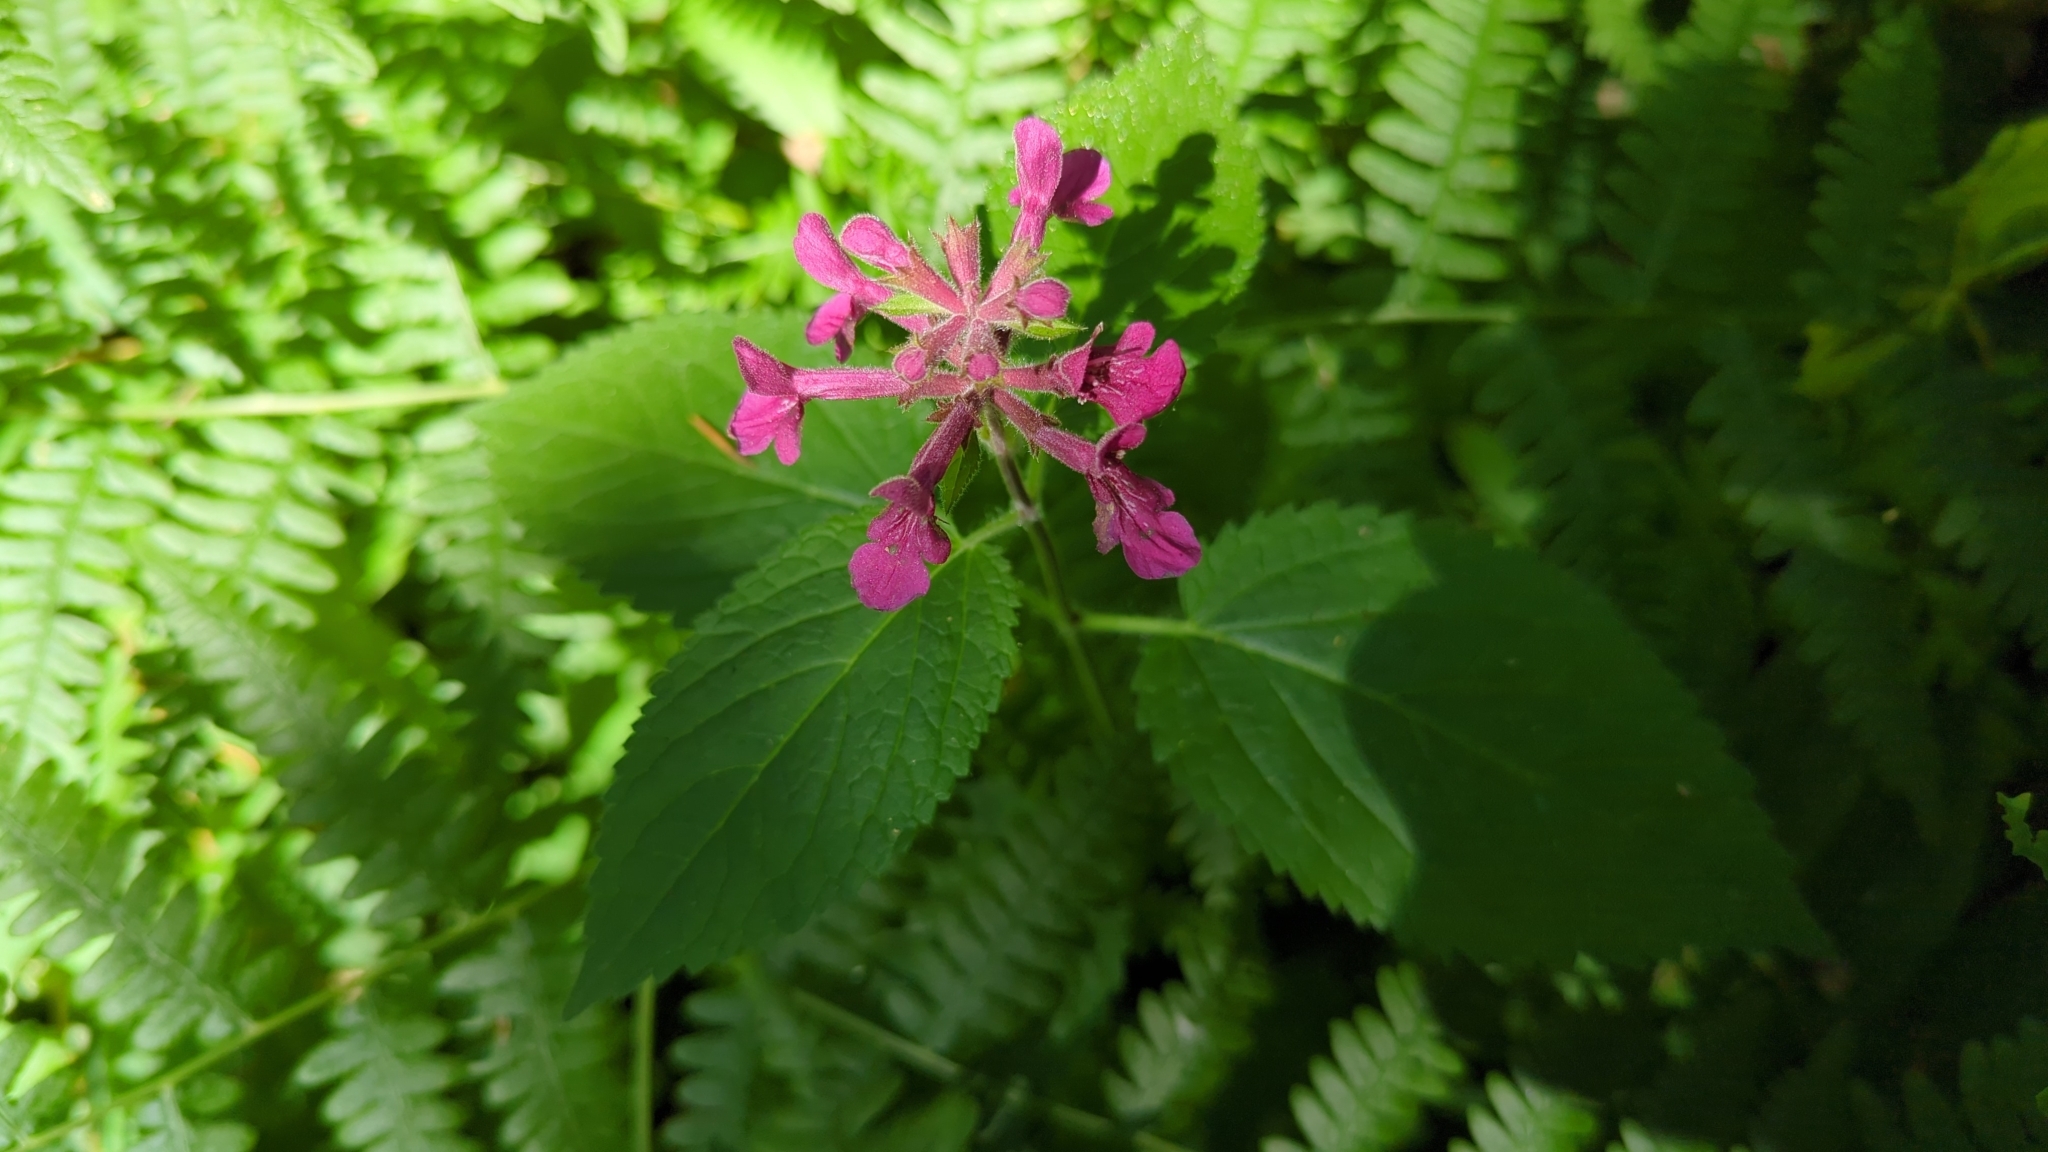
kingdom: Plantae
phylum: Tracheophyta
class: Magnoliopsida
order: Lamiales
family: Lamiaceae
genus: Stachys
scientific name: Stachys chamissonis
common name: Coastal hedge-nettle
